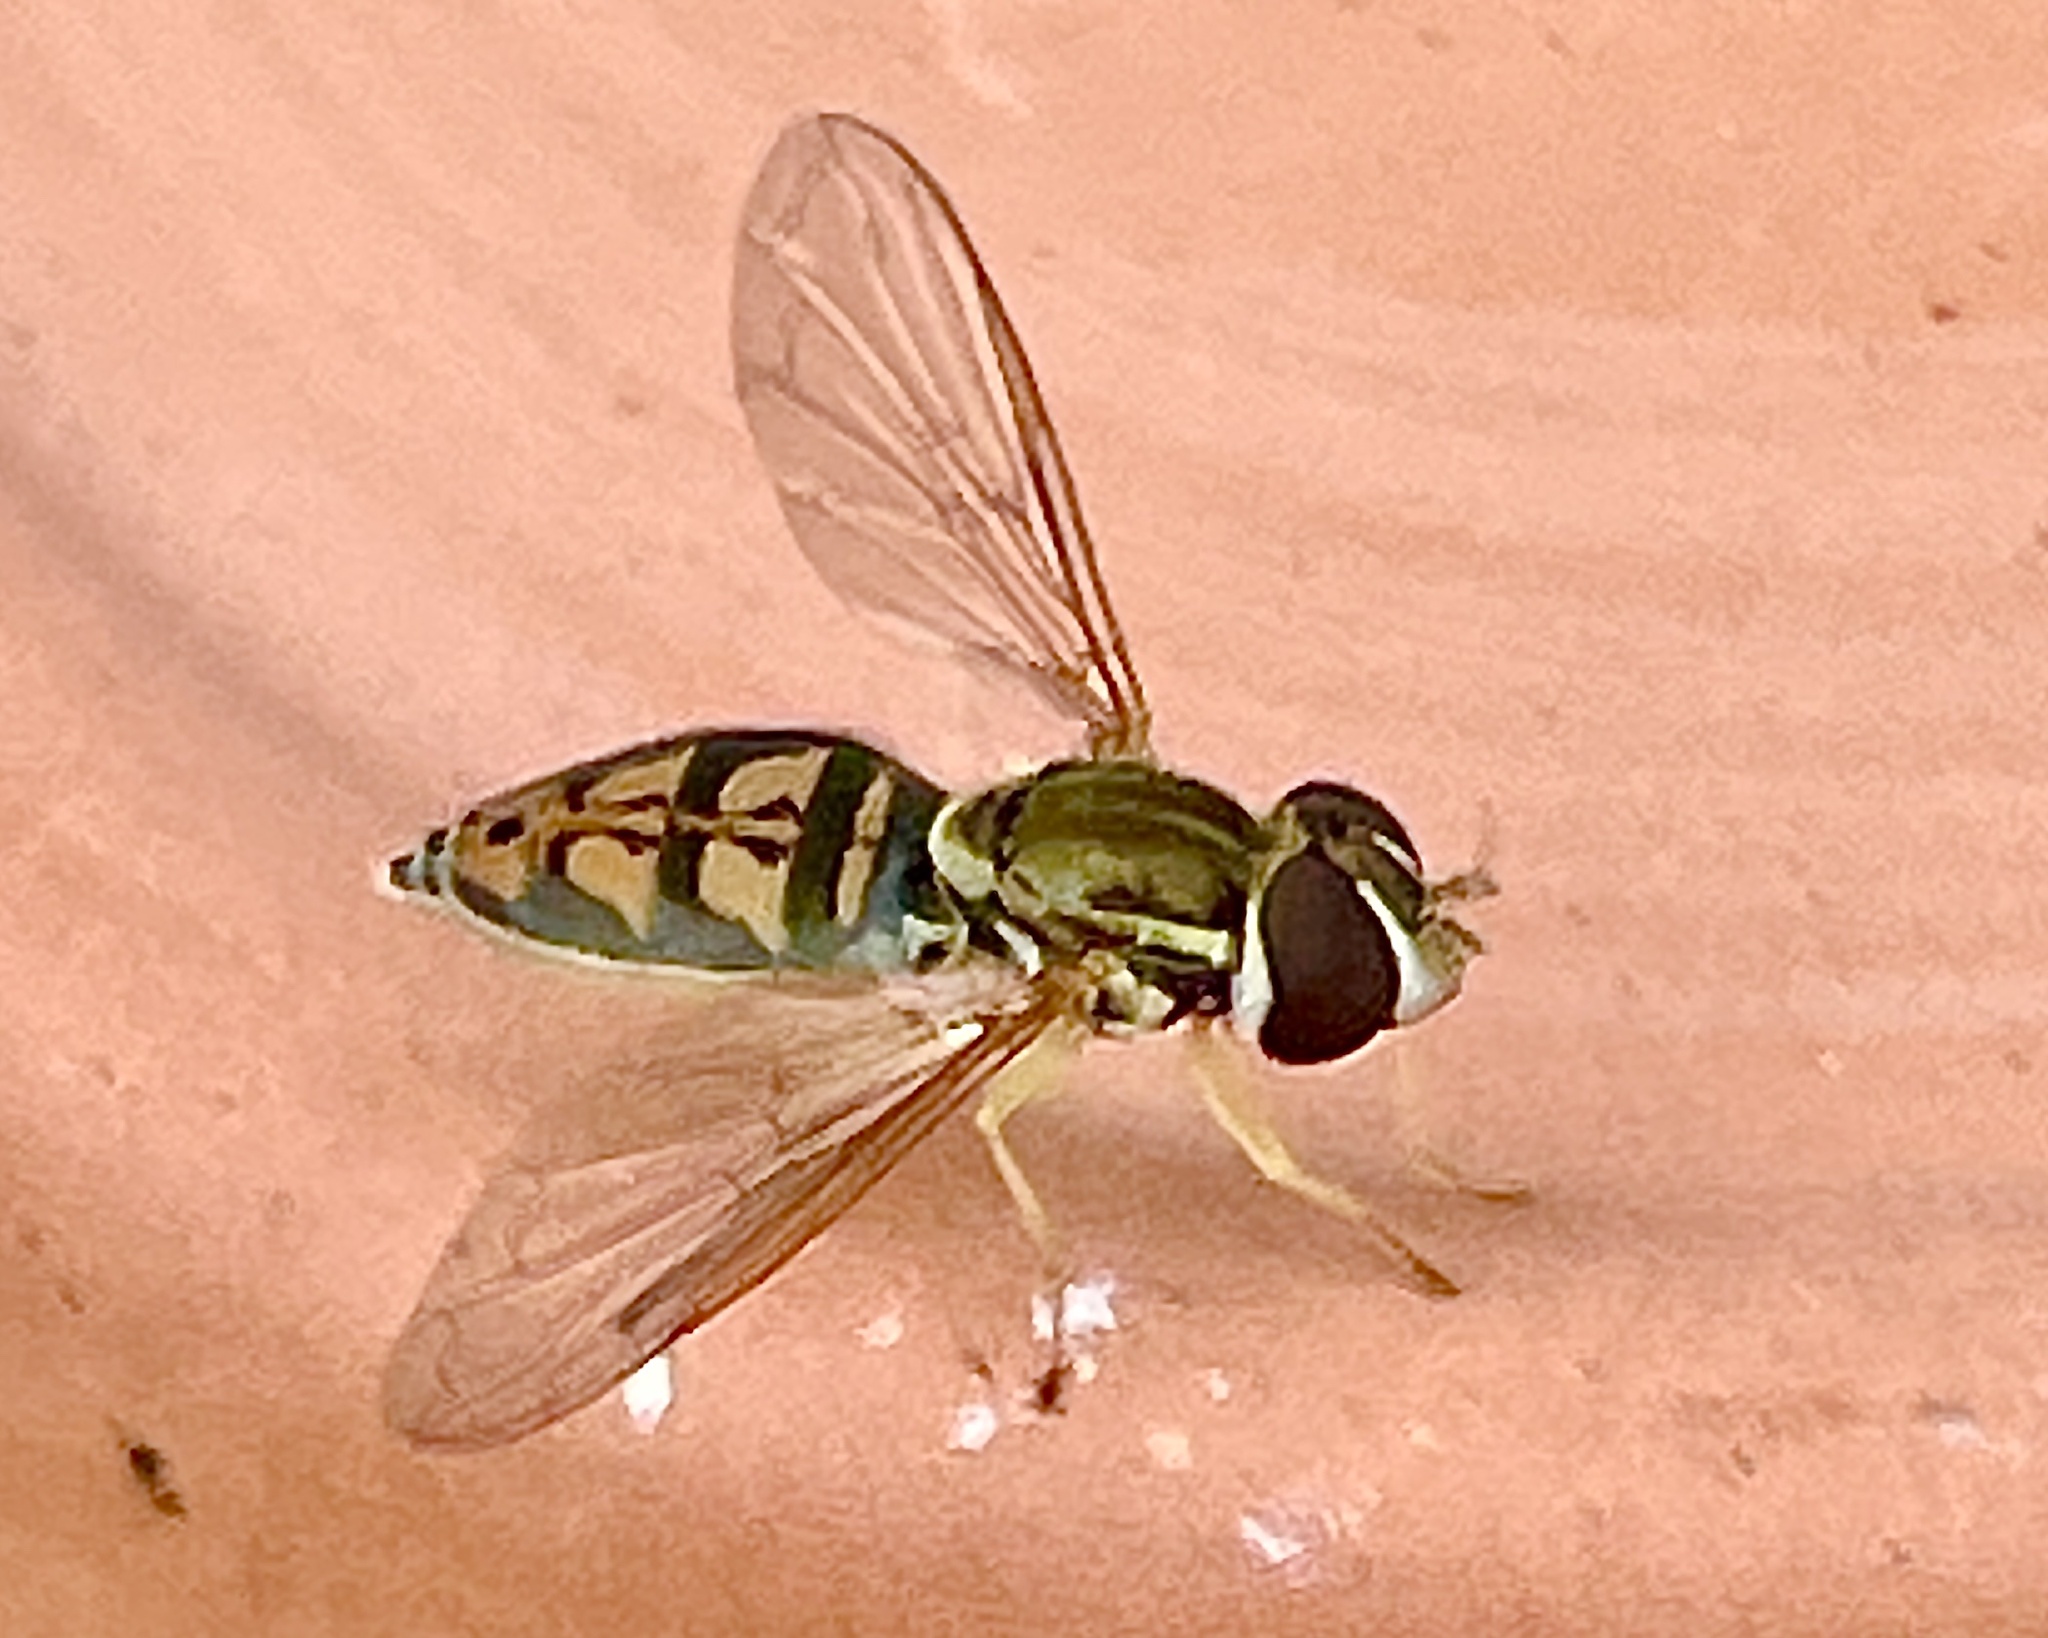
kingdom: Animalia
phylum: Arthropoda
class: Insecta
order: Diptera
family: Syrphidae
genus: Toxomerus
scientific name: Toxomerus marginatus
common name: Syrphid fly
